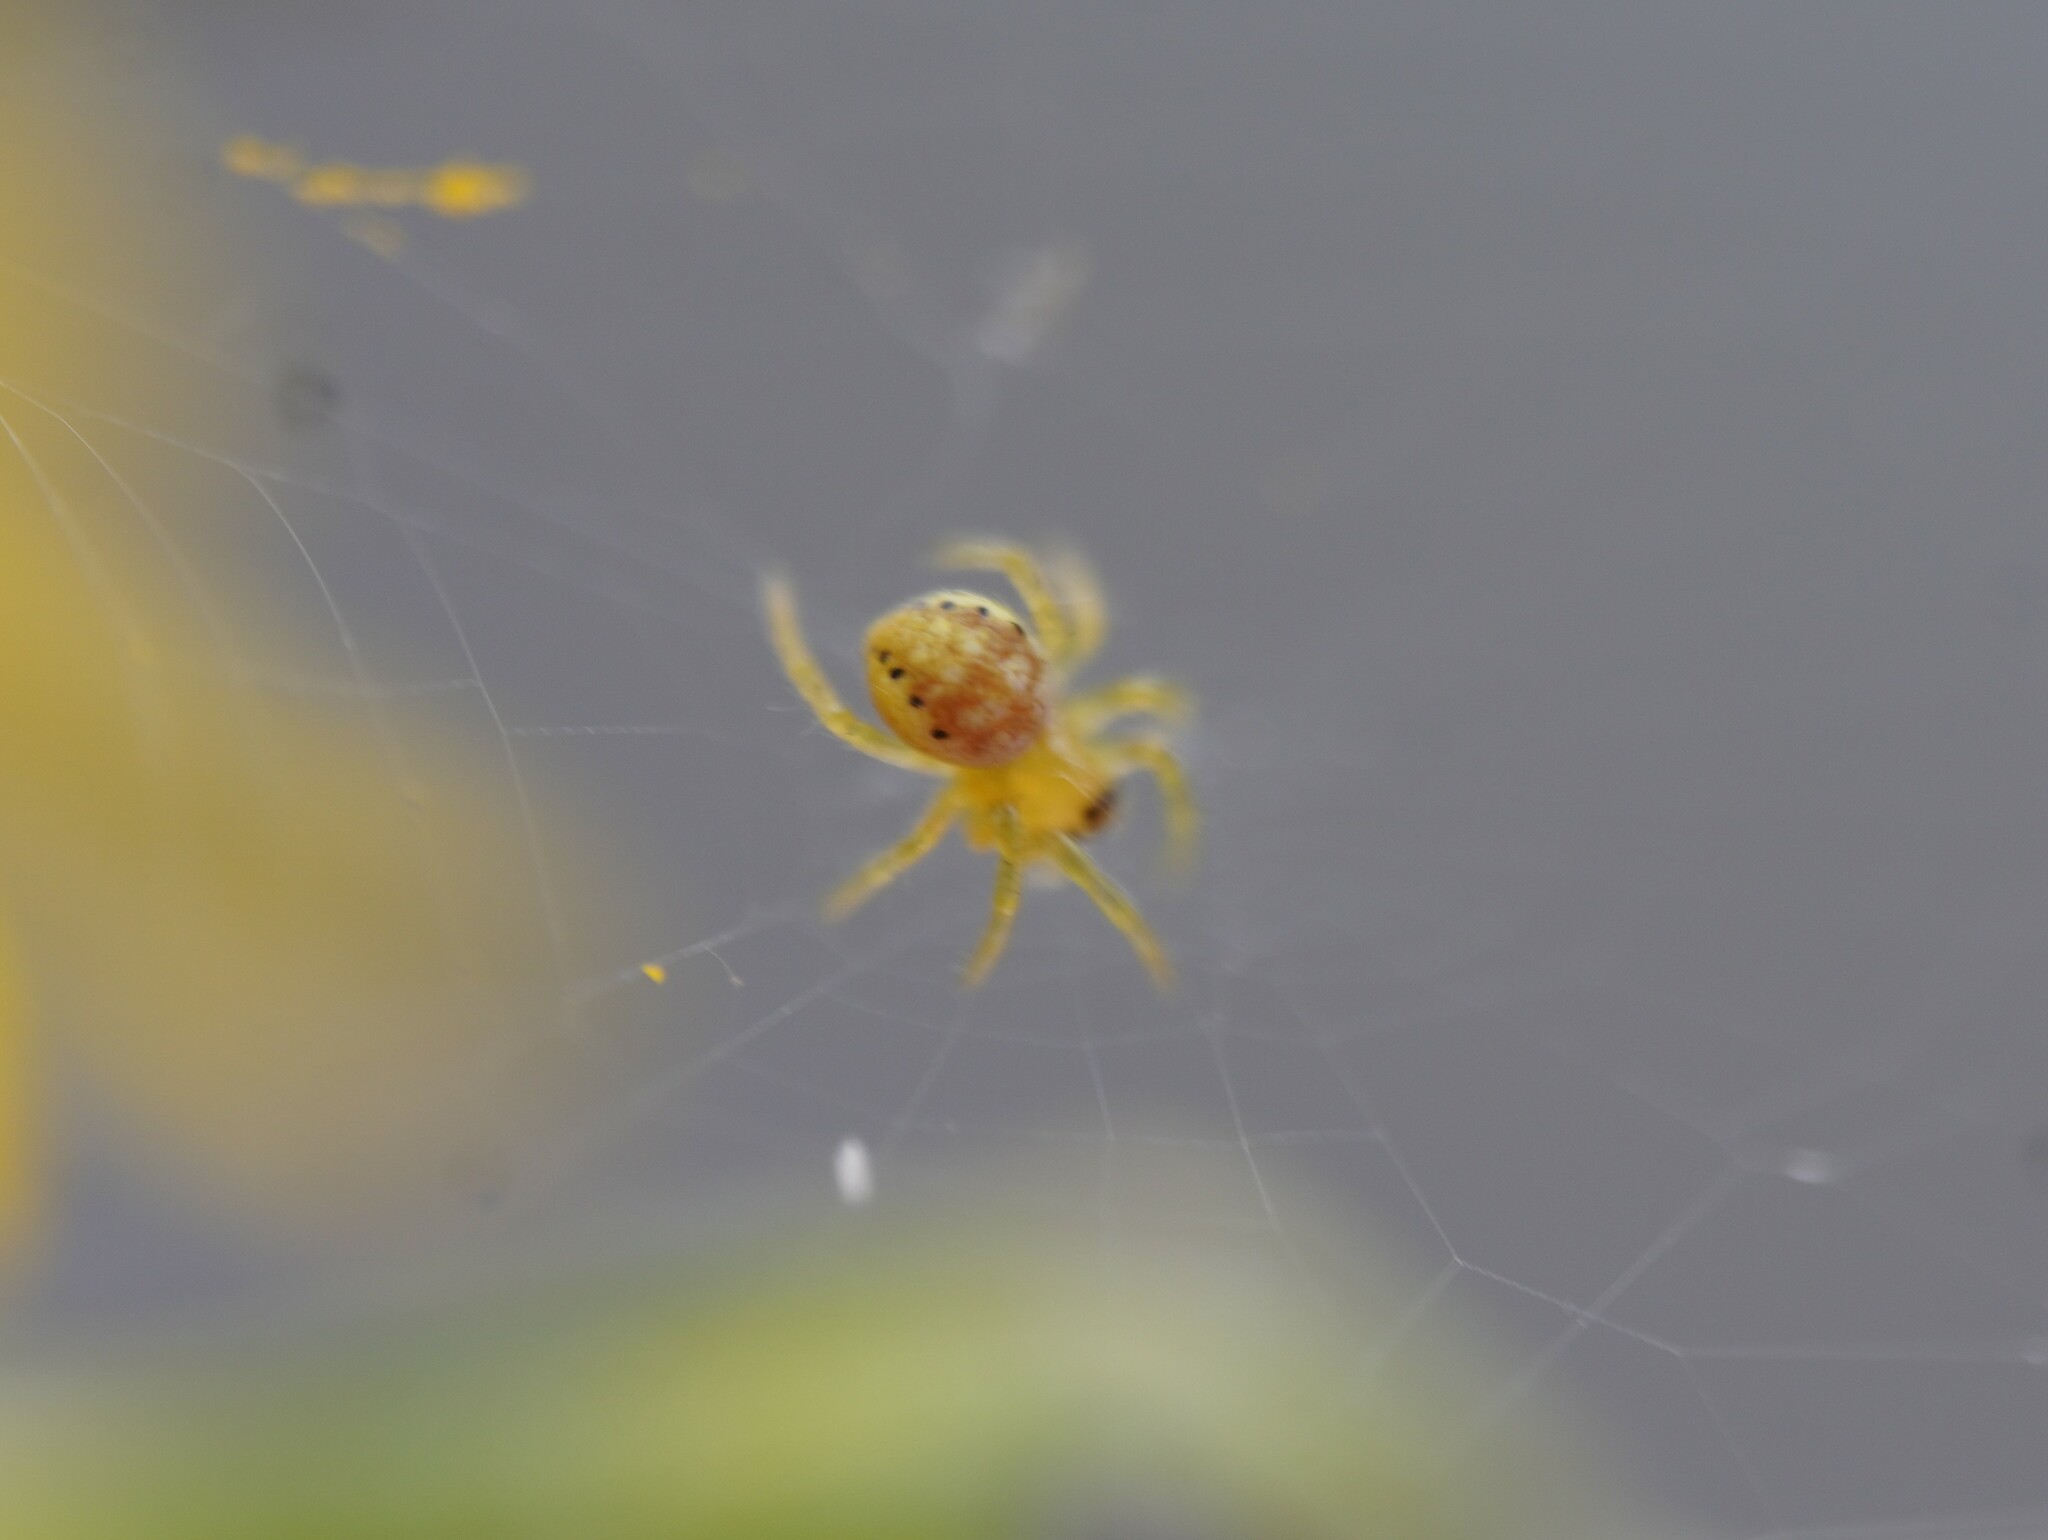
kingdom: Animalia
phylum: Arthropoda
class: Arachnida
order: Araneae
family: Araneidae
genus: Araniella
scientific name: Araniella
